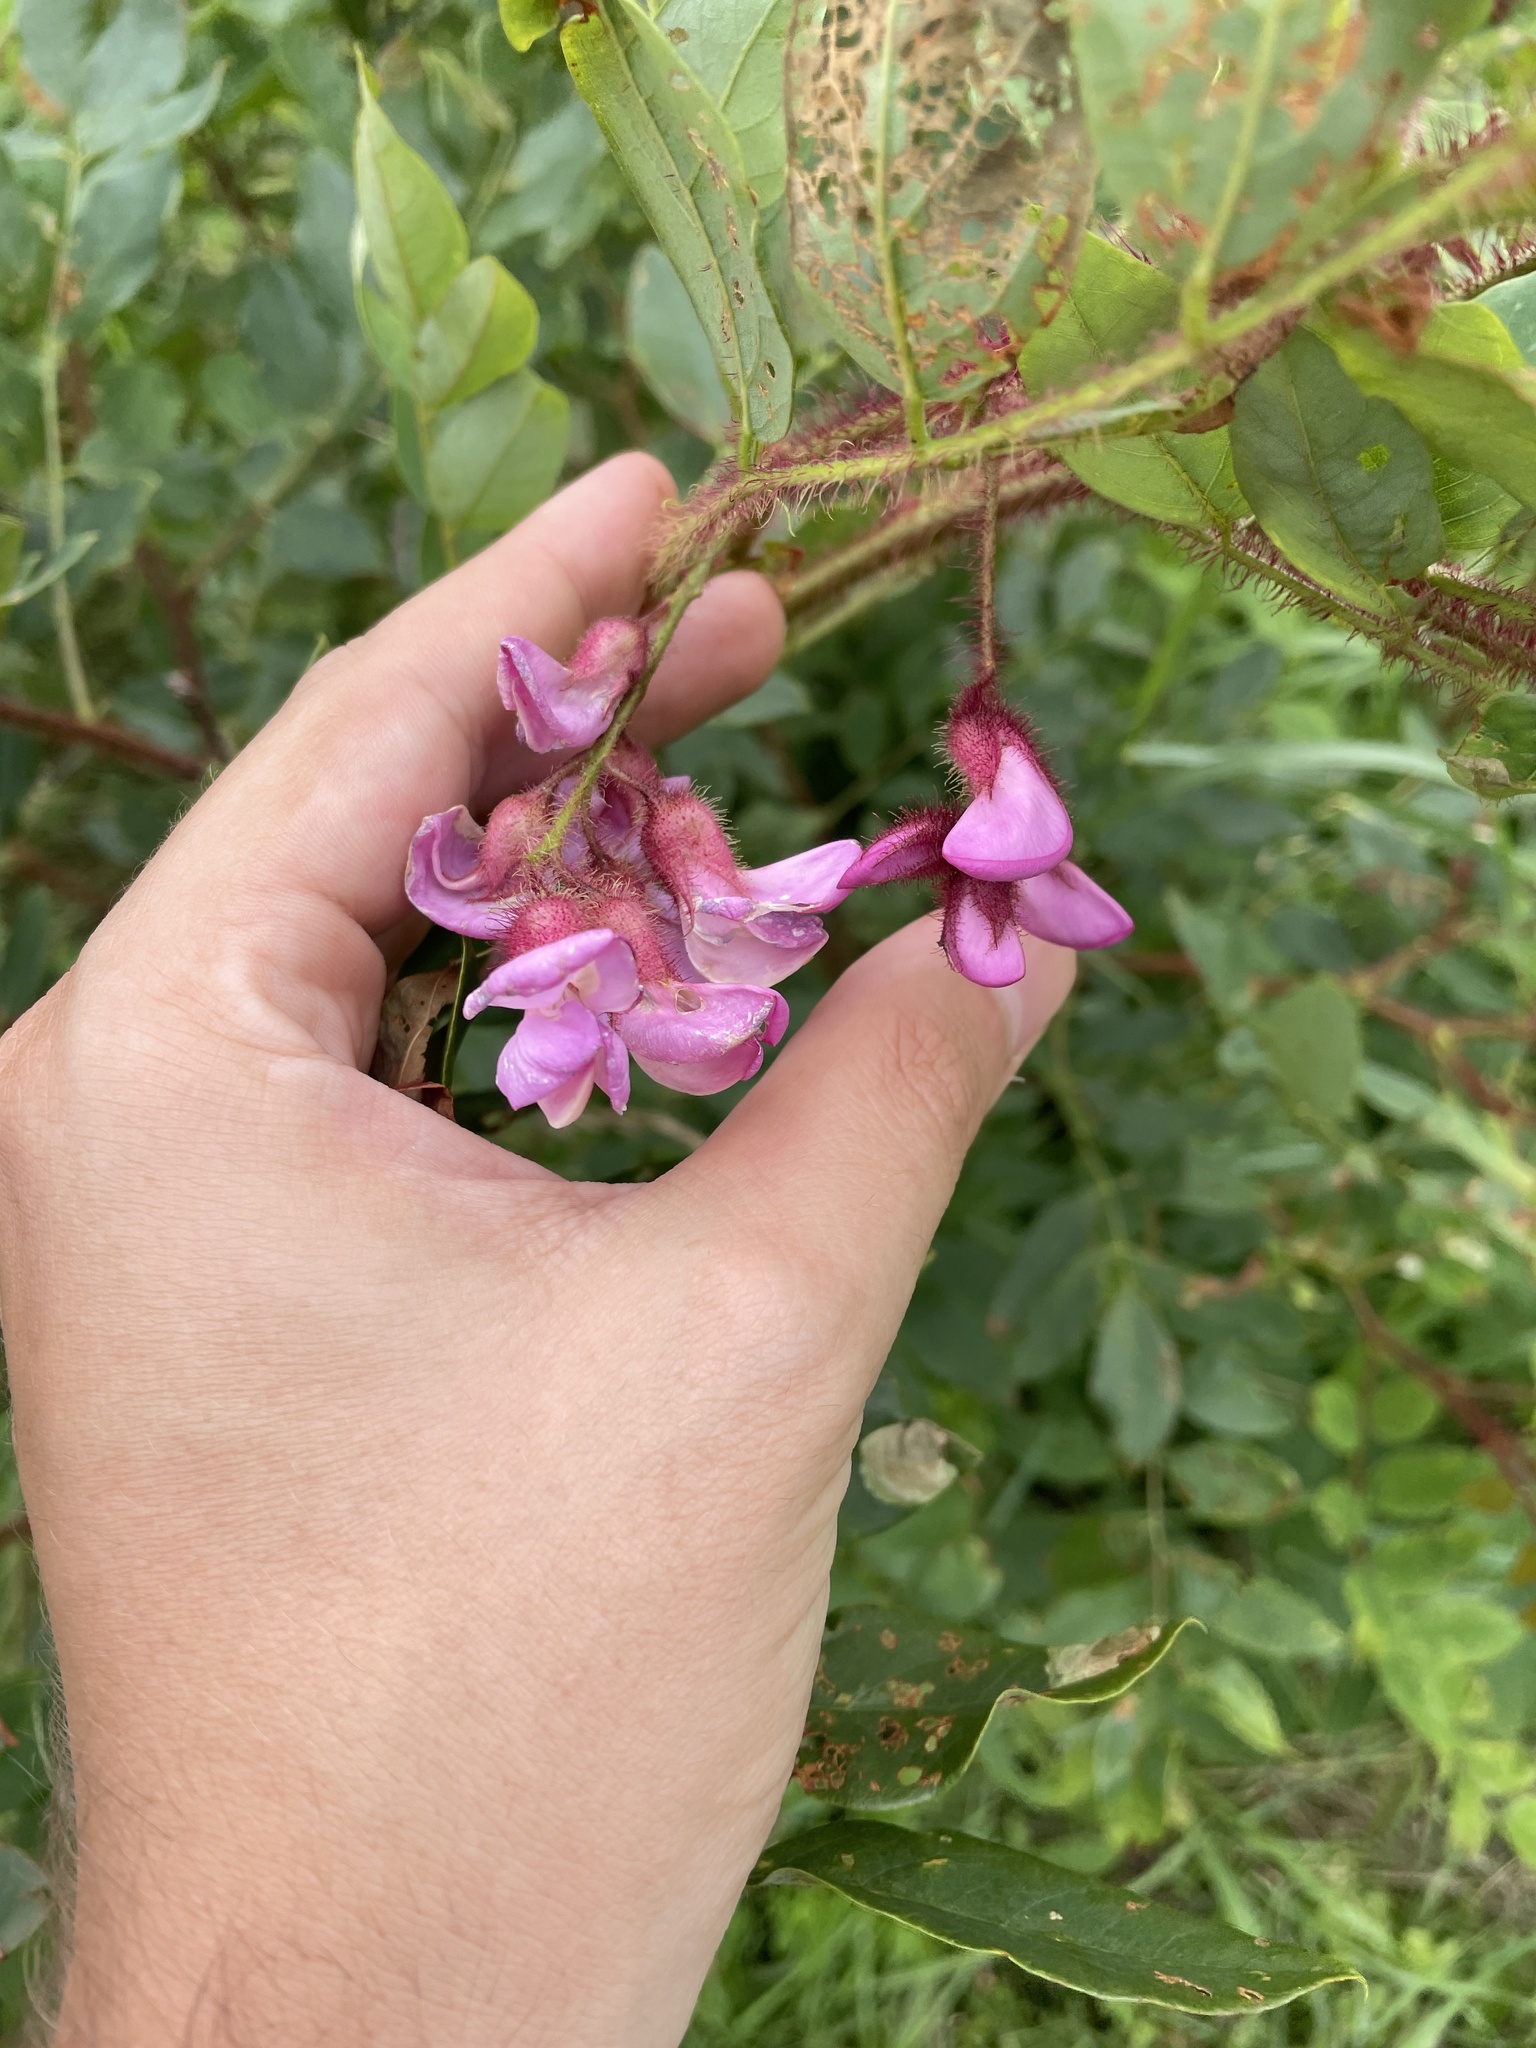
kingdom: Plantae
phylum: Tracheophyta
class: Magnoliopsida
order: Fabales
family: Fabaceae
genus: Robinia
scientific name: Robinia hispida
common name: Bristly locust
